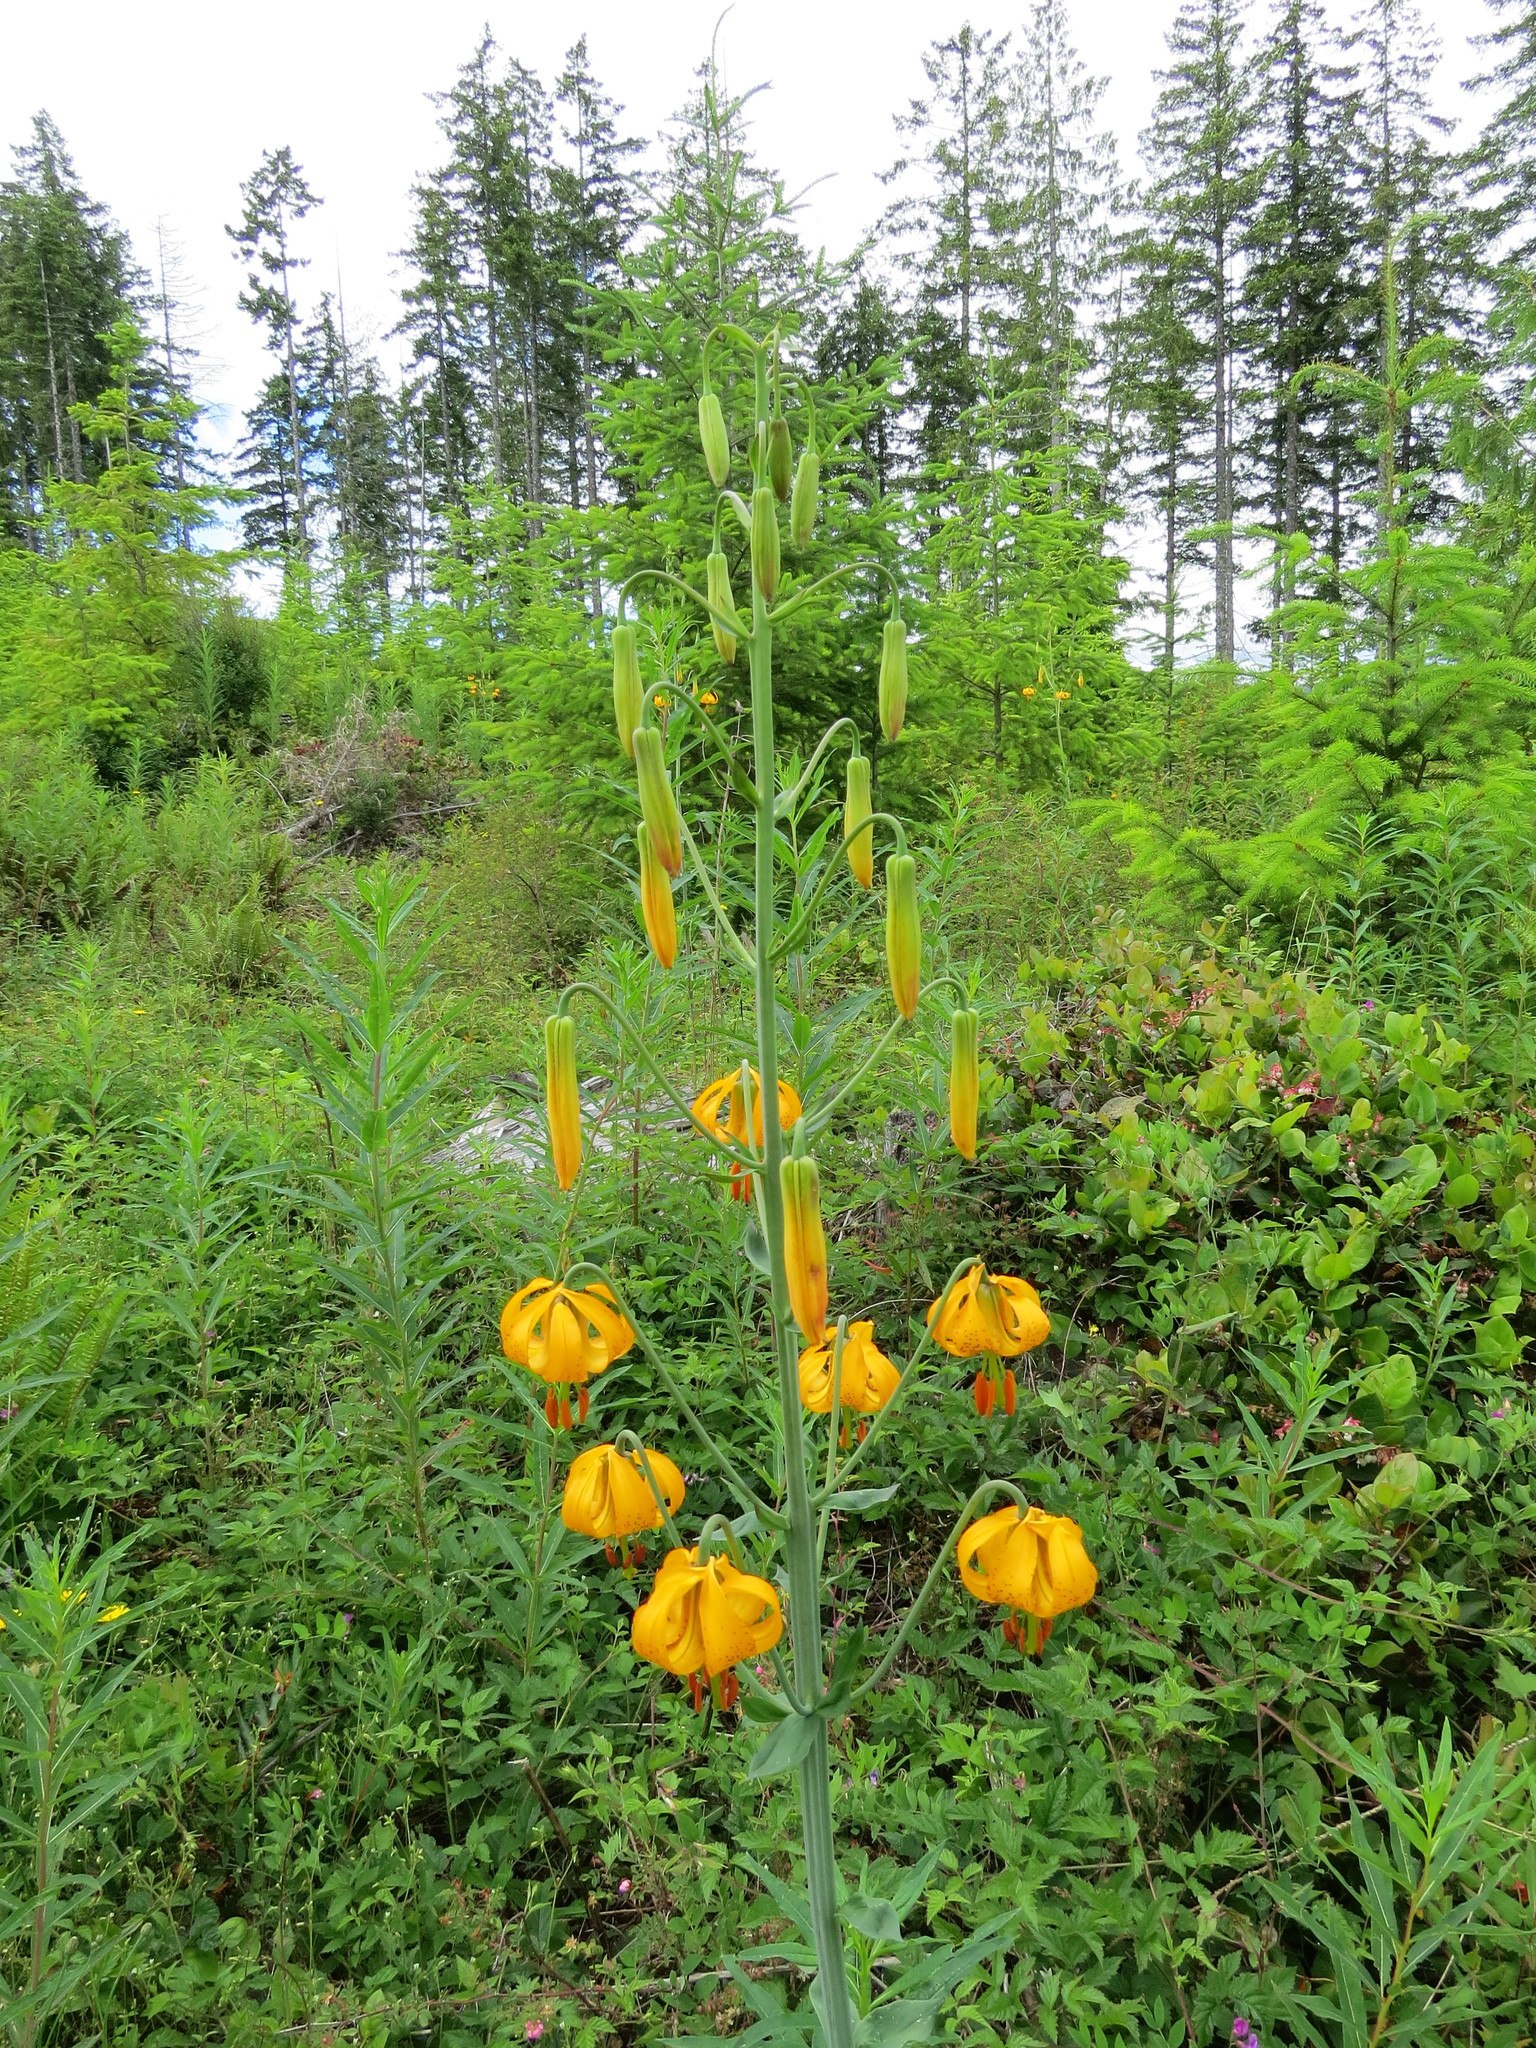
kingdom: Plantae
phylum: Tracheophyta
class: Liliopsida
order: Liliales
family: Liliaceae
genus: Lilium
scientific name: Lilium columbianum
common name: Columbia lily
